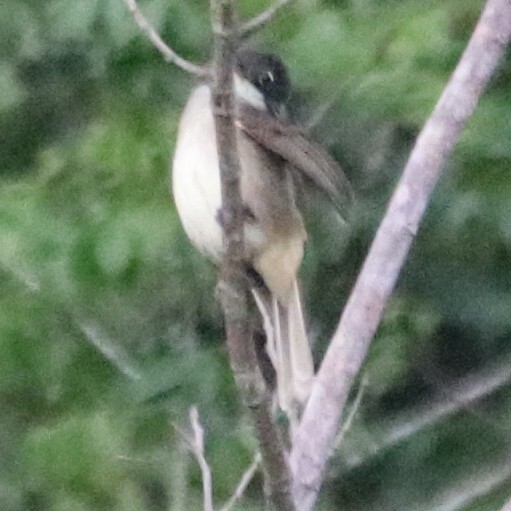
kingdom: Animalia
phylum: Chordata
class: Aves
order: Passeriformes
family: Pycnonotidae
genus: Chlorocichla
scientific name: Chlorocichla simplex
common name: Simple greenbul
